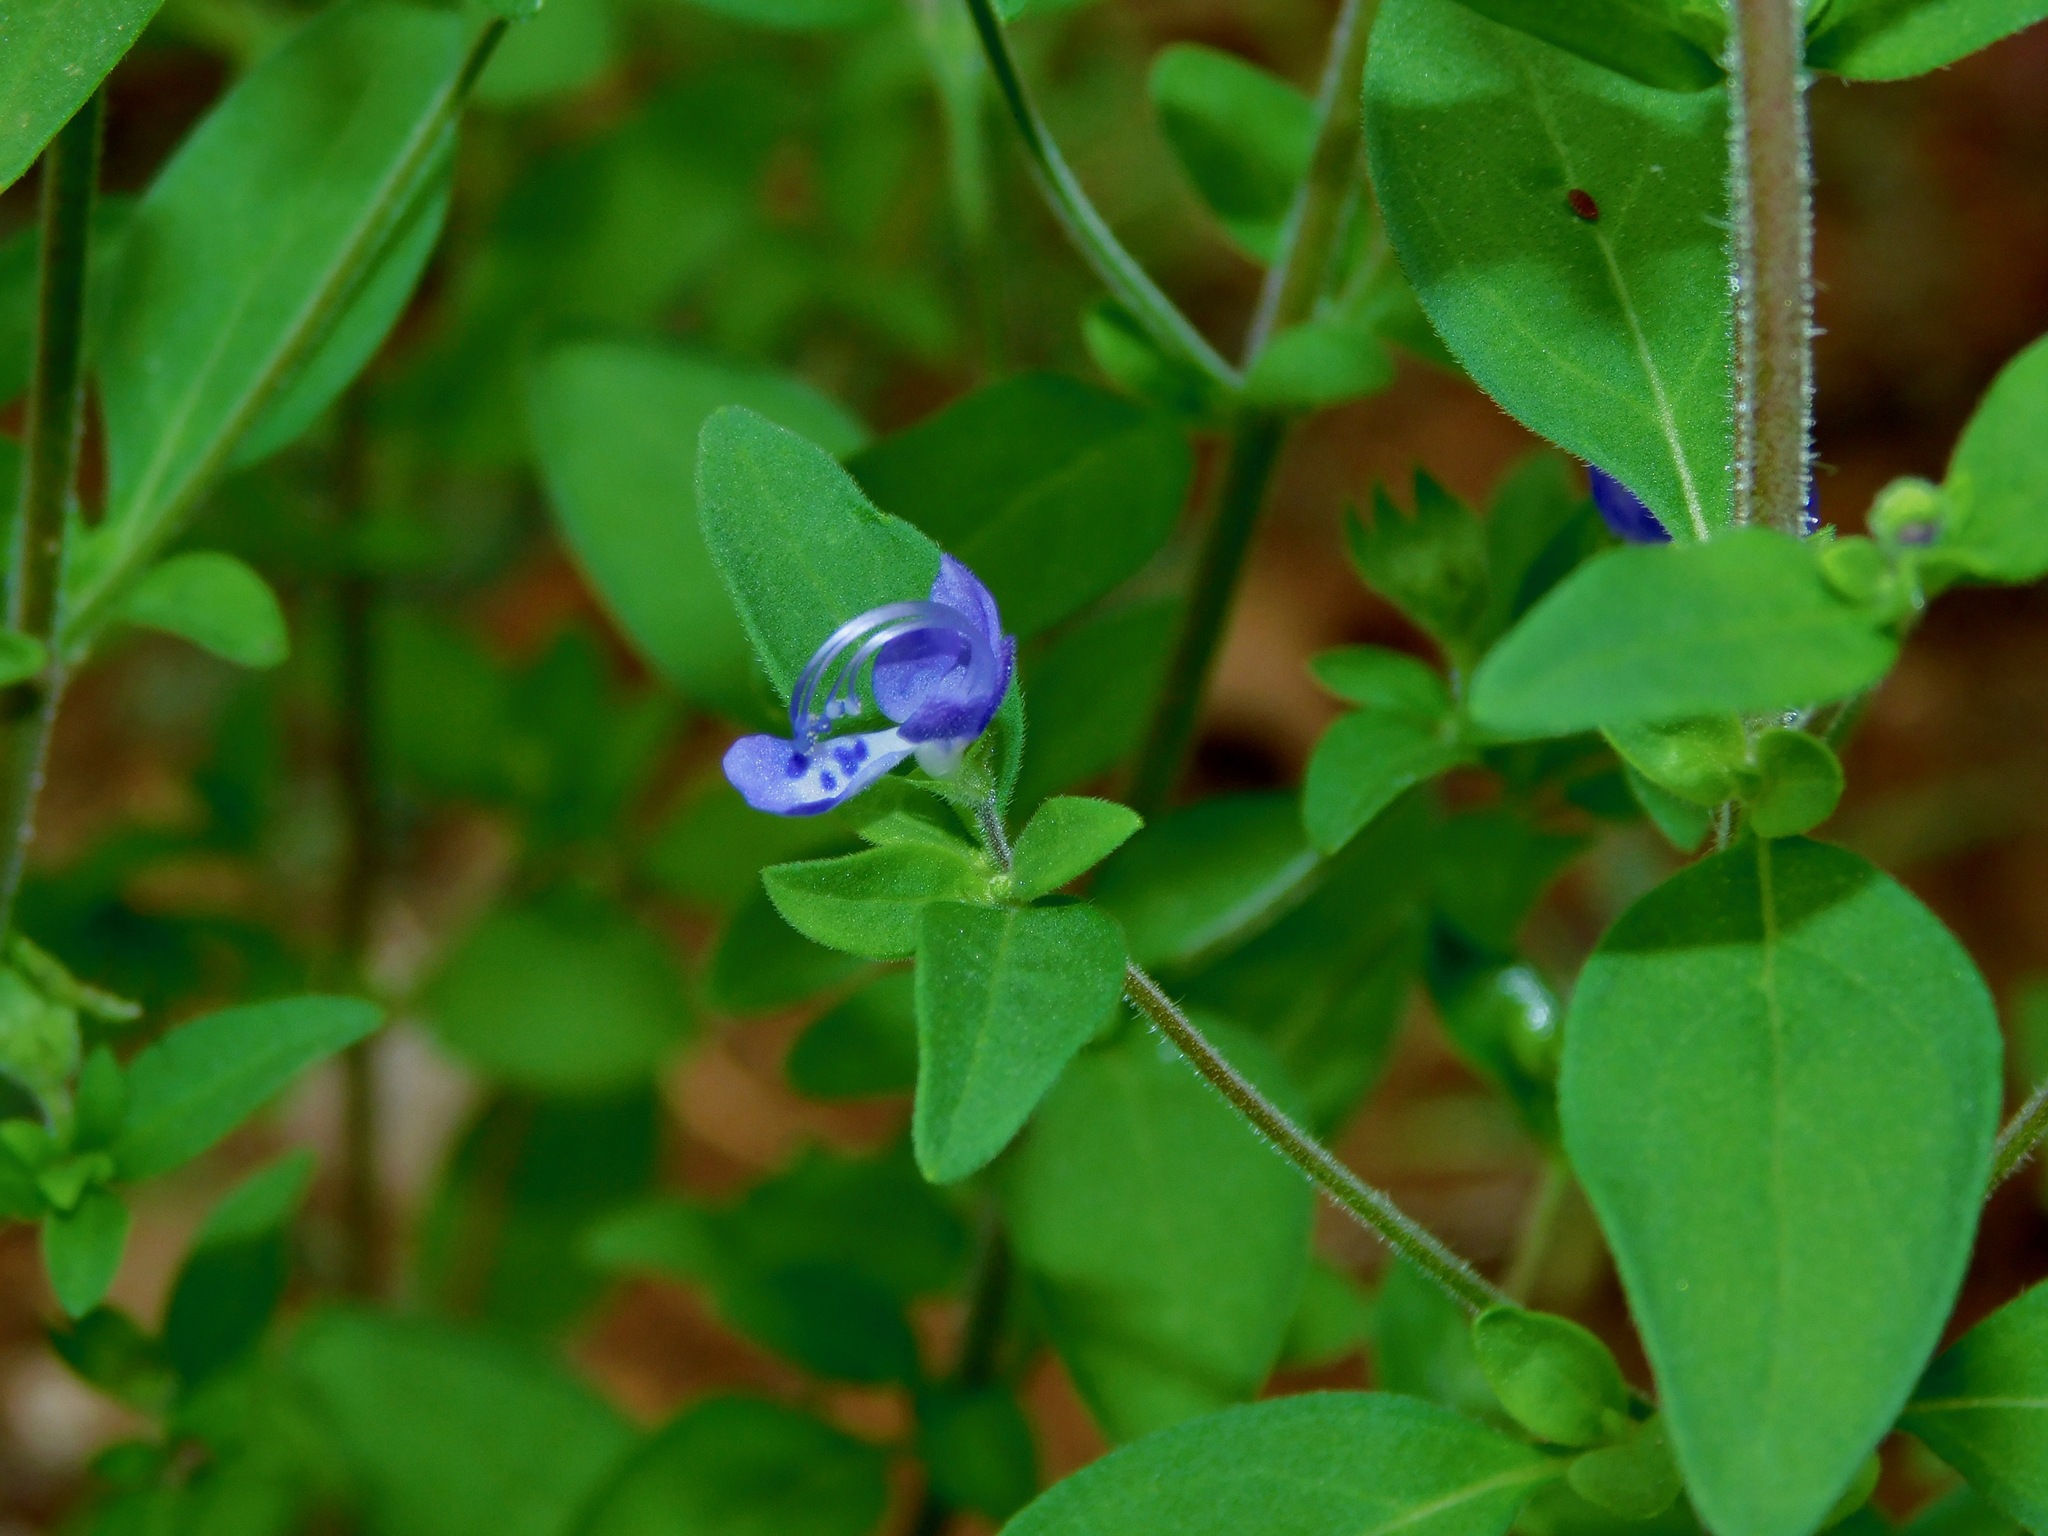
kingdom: Plantae
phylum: Tracheophyta
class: Magnoliopsida
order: Lamiales
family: Lamiaceae
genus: Trichostema
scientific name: Trichostema dichotomum
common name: Bastard pennyroyal
